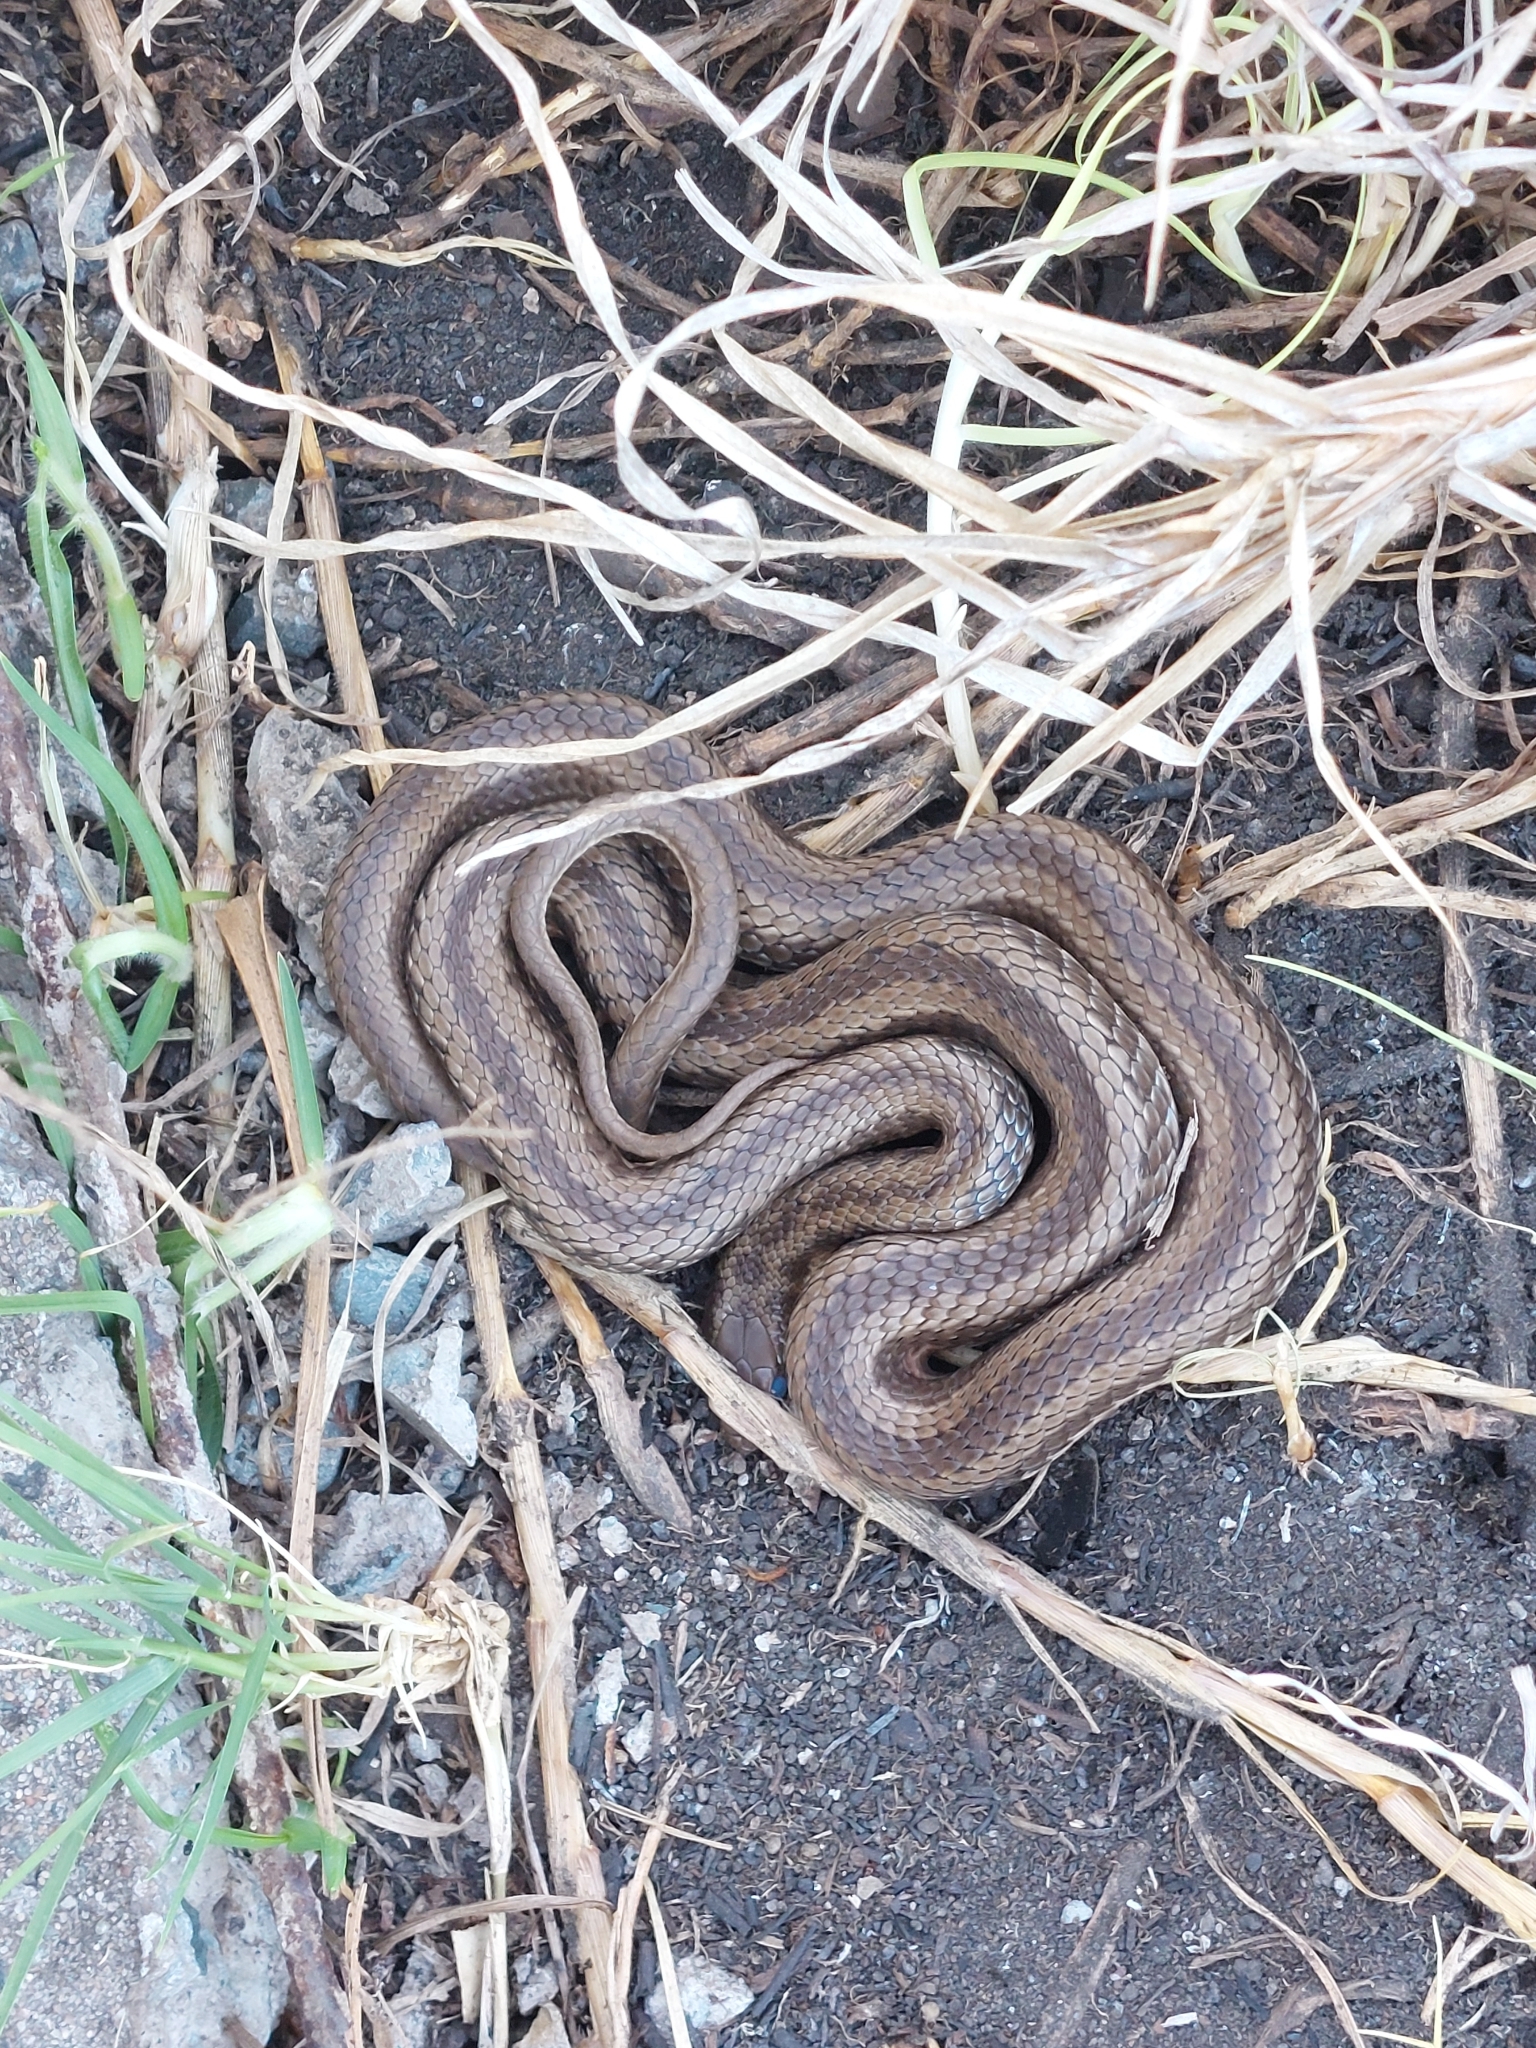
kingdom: Animalia
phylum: Chordata
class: Squamata
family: Psammophiidae
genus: Psammophylax
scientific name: Psammophylax rhombeatus
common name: Rhombic skaapsteker
